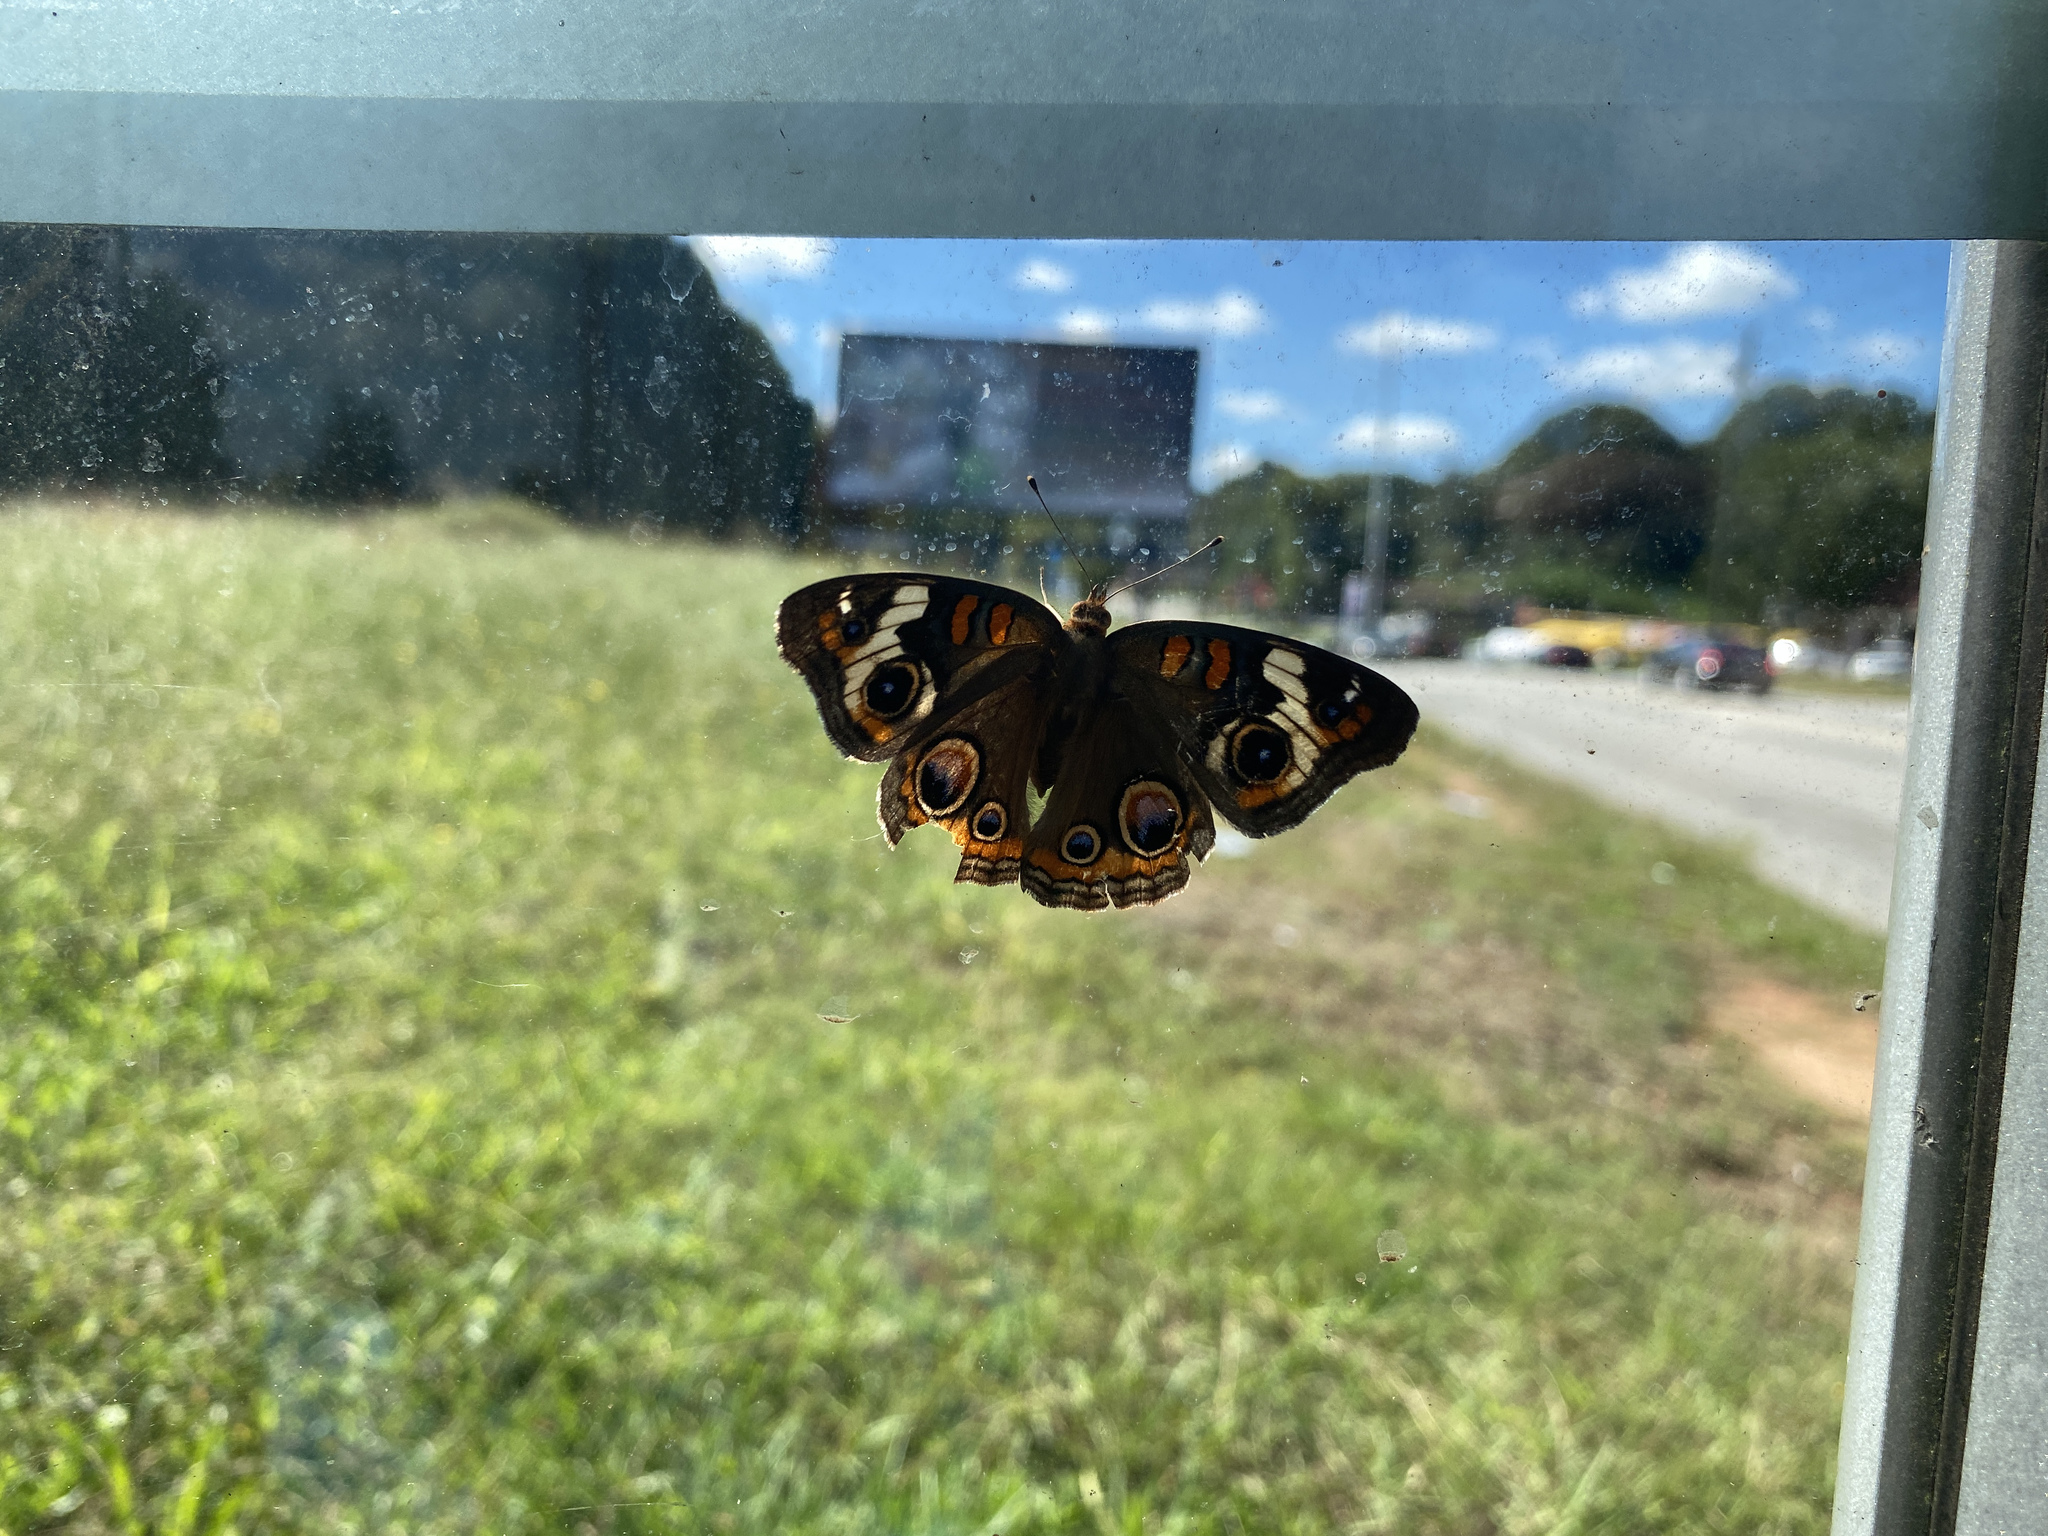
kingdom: Animalia
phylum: Arthropoda
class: Insecta
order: Lepidoptera
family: Nymphalidae
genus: Junonia
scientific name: Junonia coenia
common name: Common buckeye
